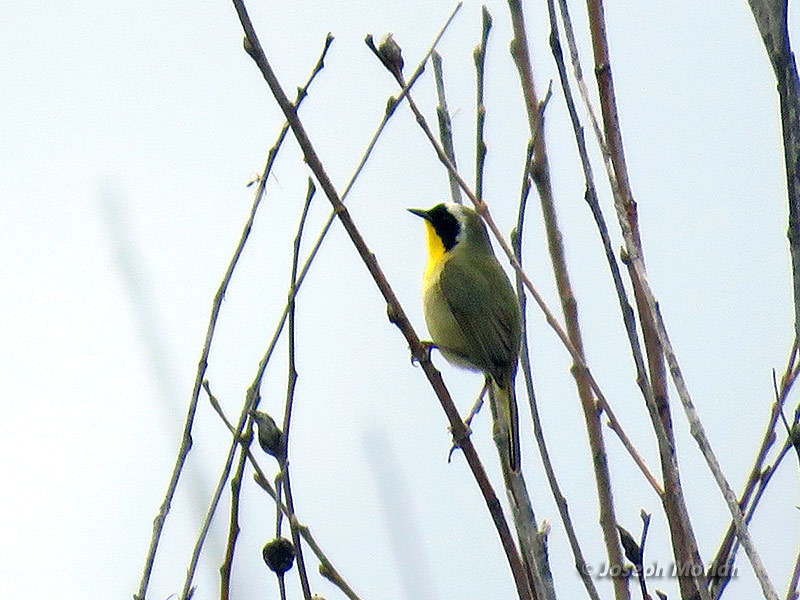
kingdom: Animalia
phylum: Chordata
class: Aves
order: Passeriformes
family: Parulidae
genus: Geothlypis
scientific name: Geothlypis trichas
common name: Common yellowthroat
